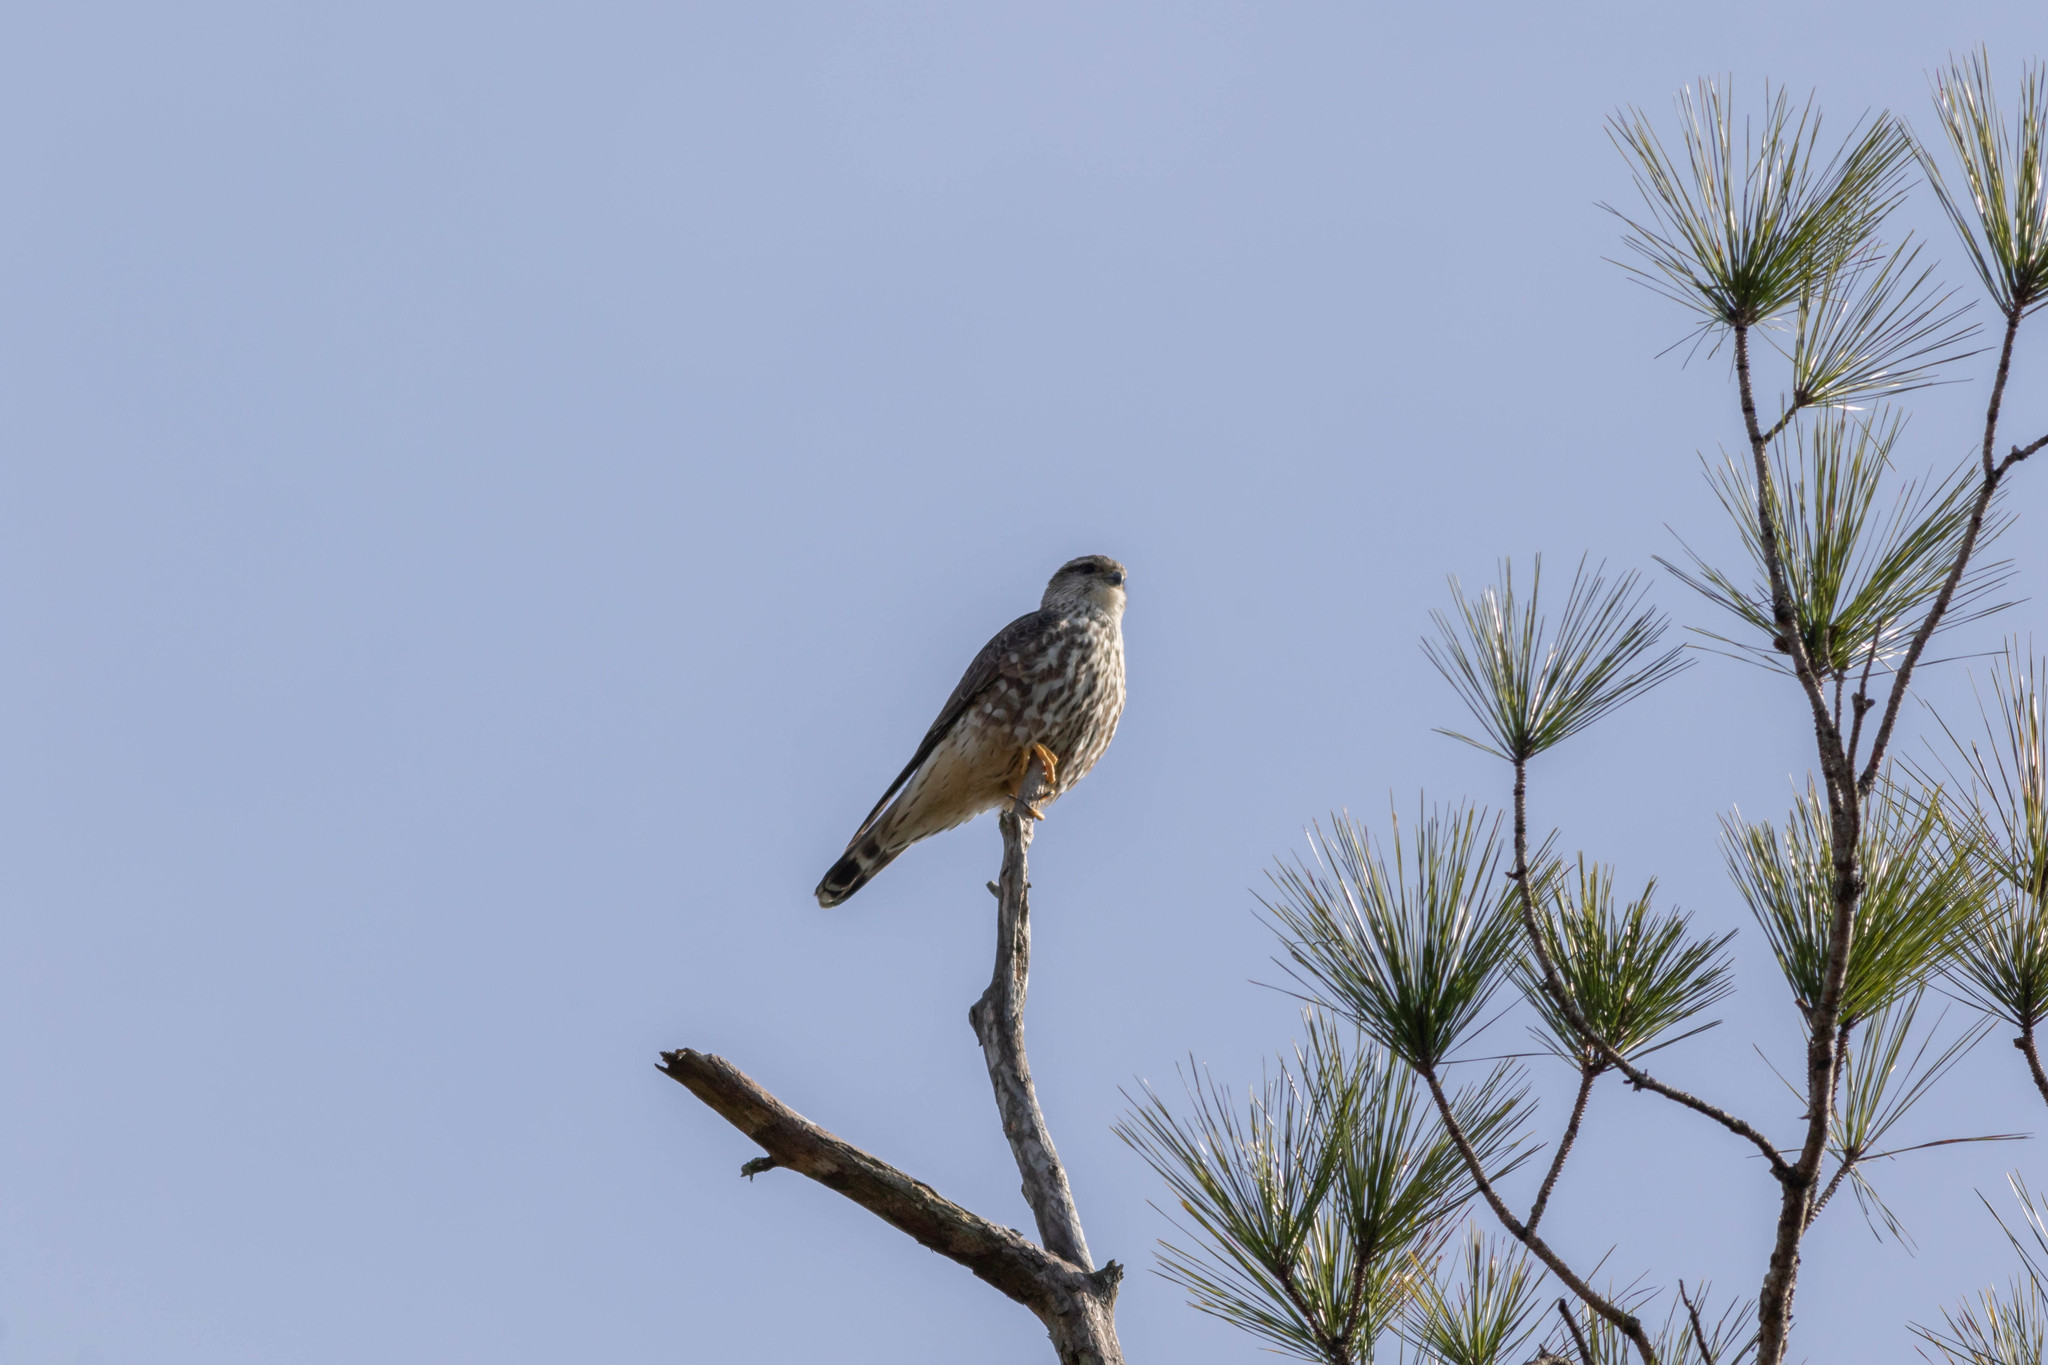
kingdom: Animalia
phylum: Chordata
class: Aves
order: Falconiformes
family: Falconidae
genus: Falco
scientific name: Falco columbarius
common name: Merlin
